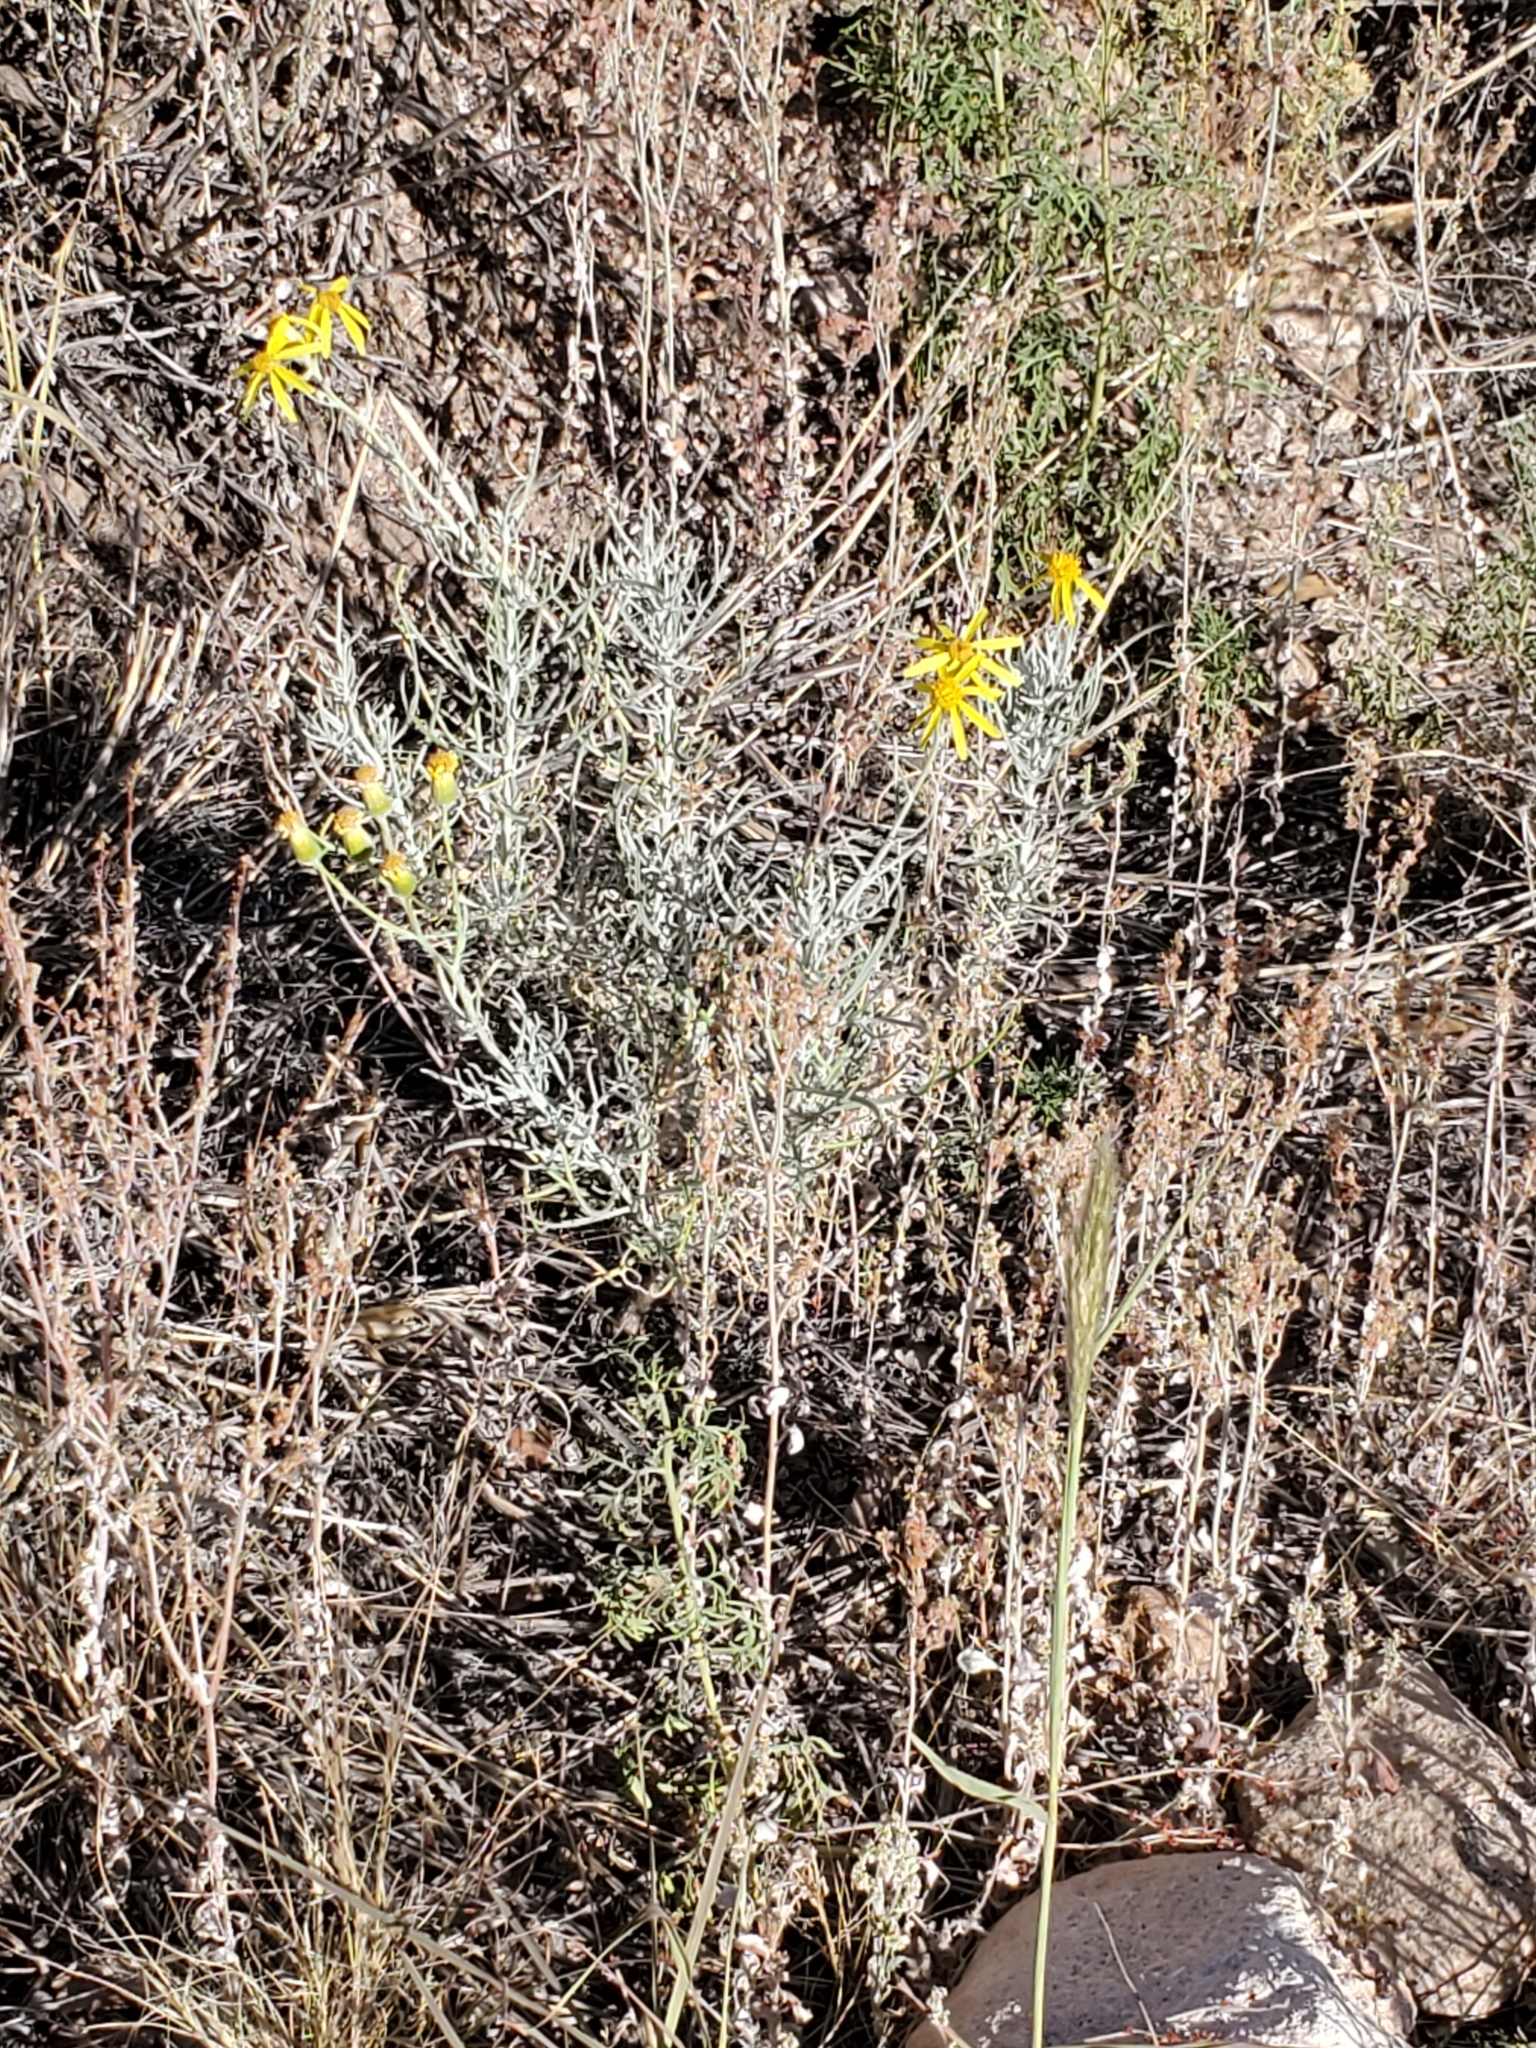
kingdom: Plantae
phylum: Tracheophyta
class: Magnoliopsida
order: Asterales
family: Asteraceae
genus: Senecio
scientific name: Senecio flaccidus
